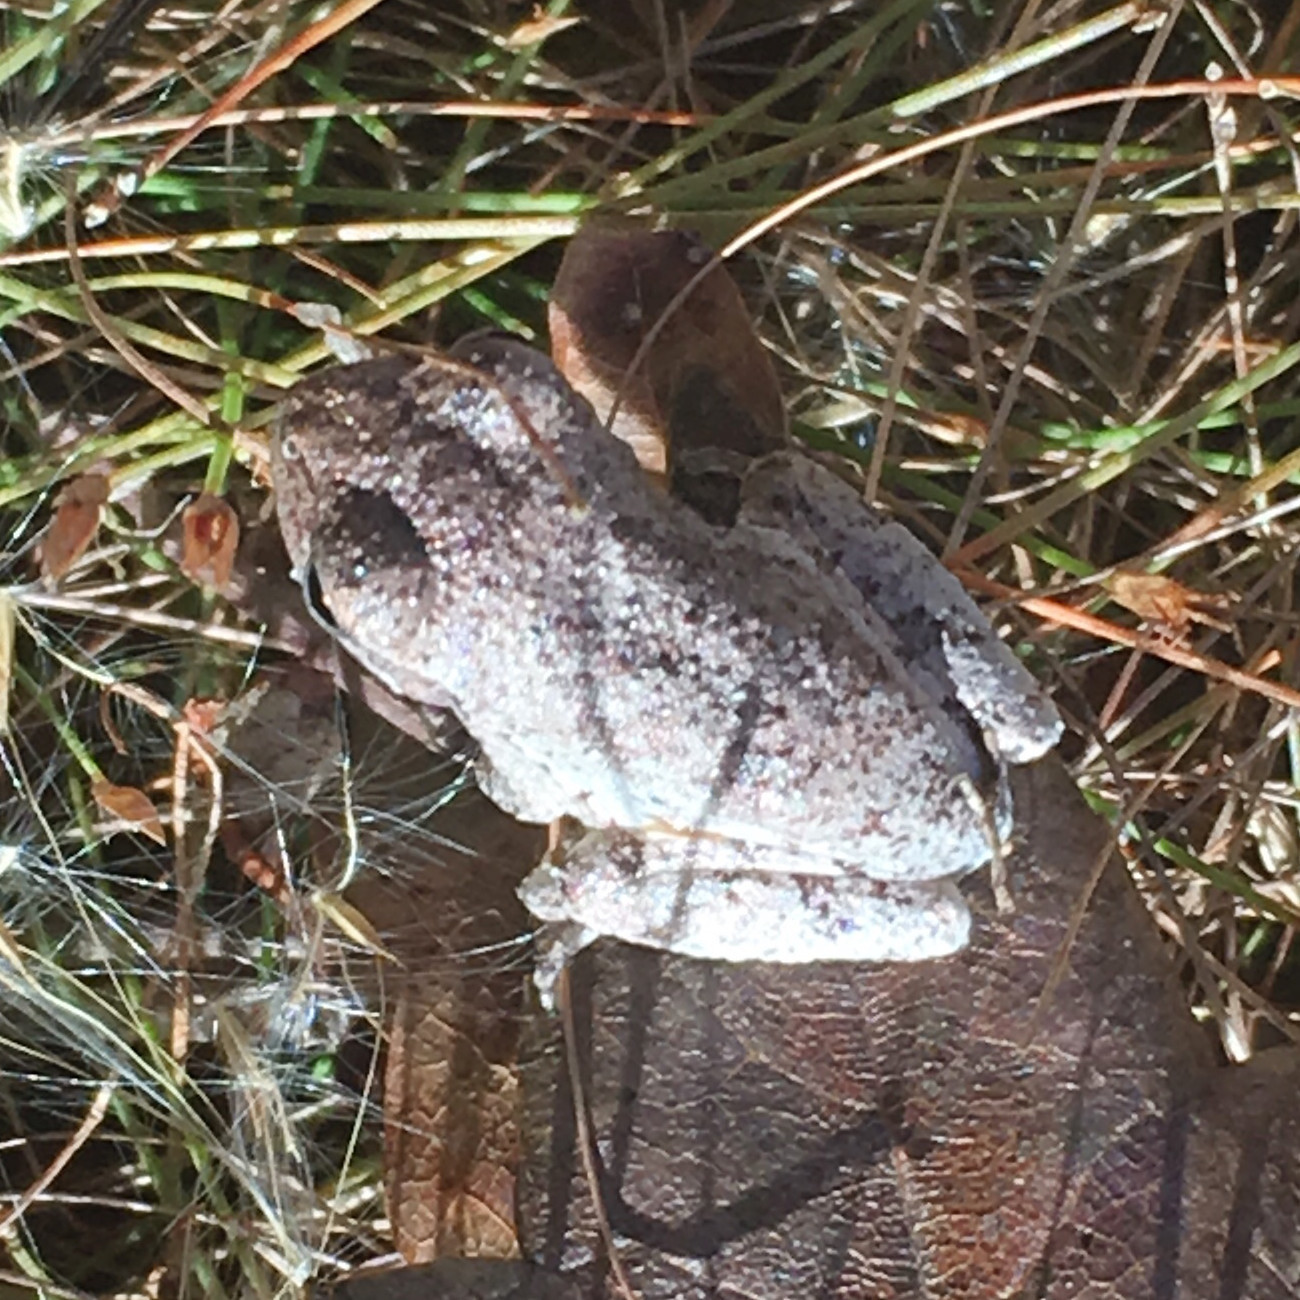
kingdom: Animalia
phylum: Chordata
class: Amphibia
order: Anura
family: Hylidae
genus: Hyla
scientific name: Hyla femoralis
